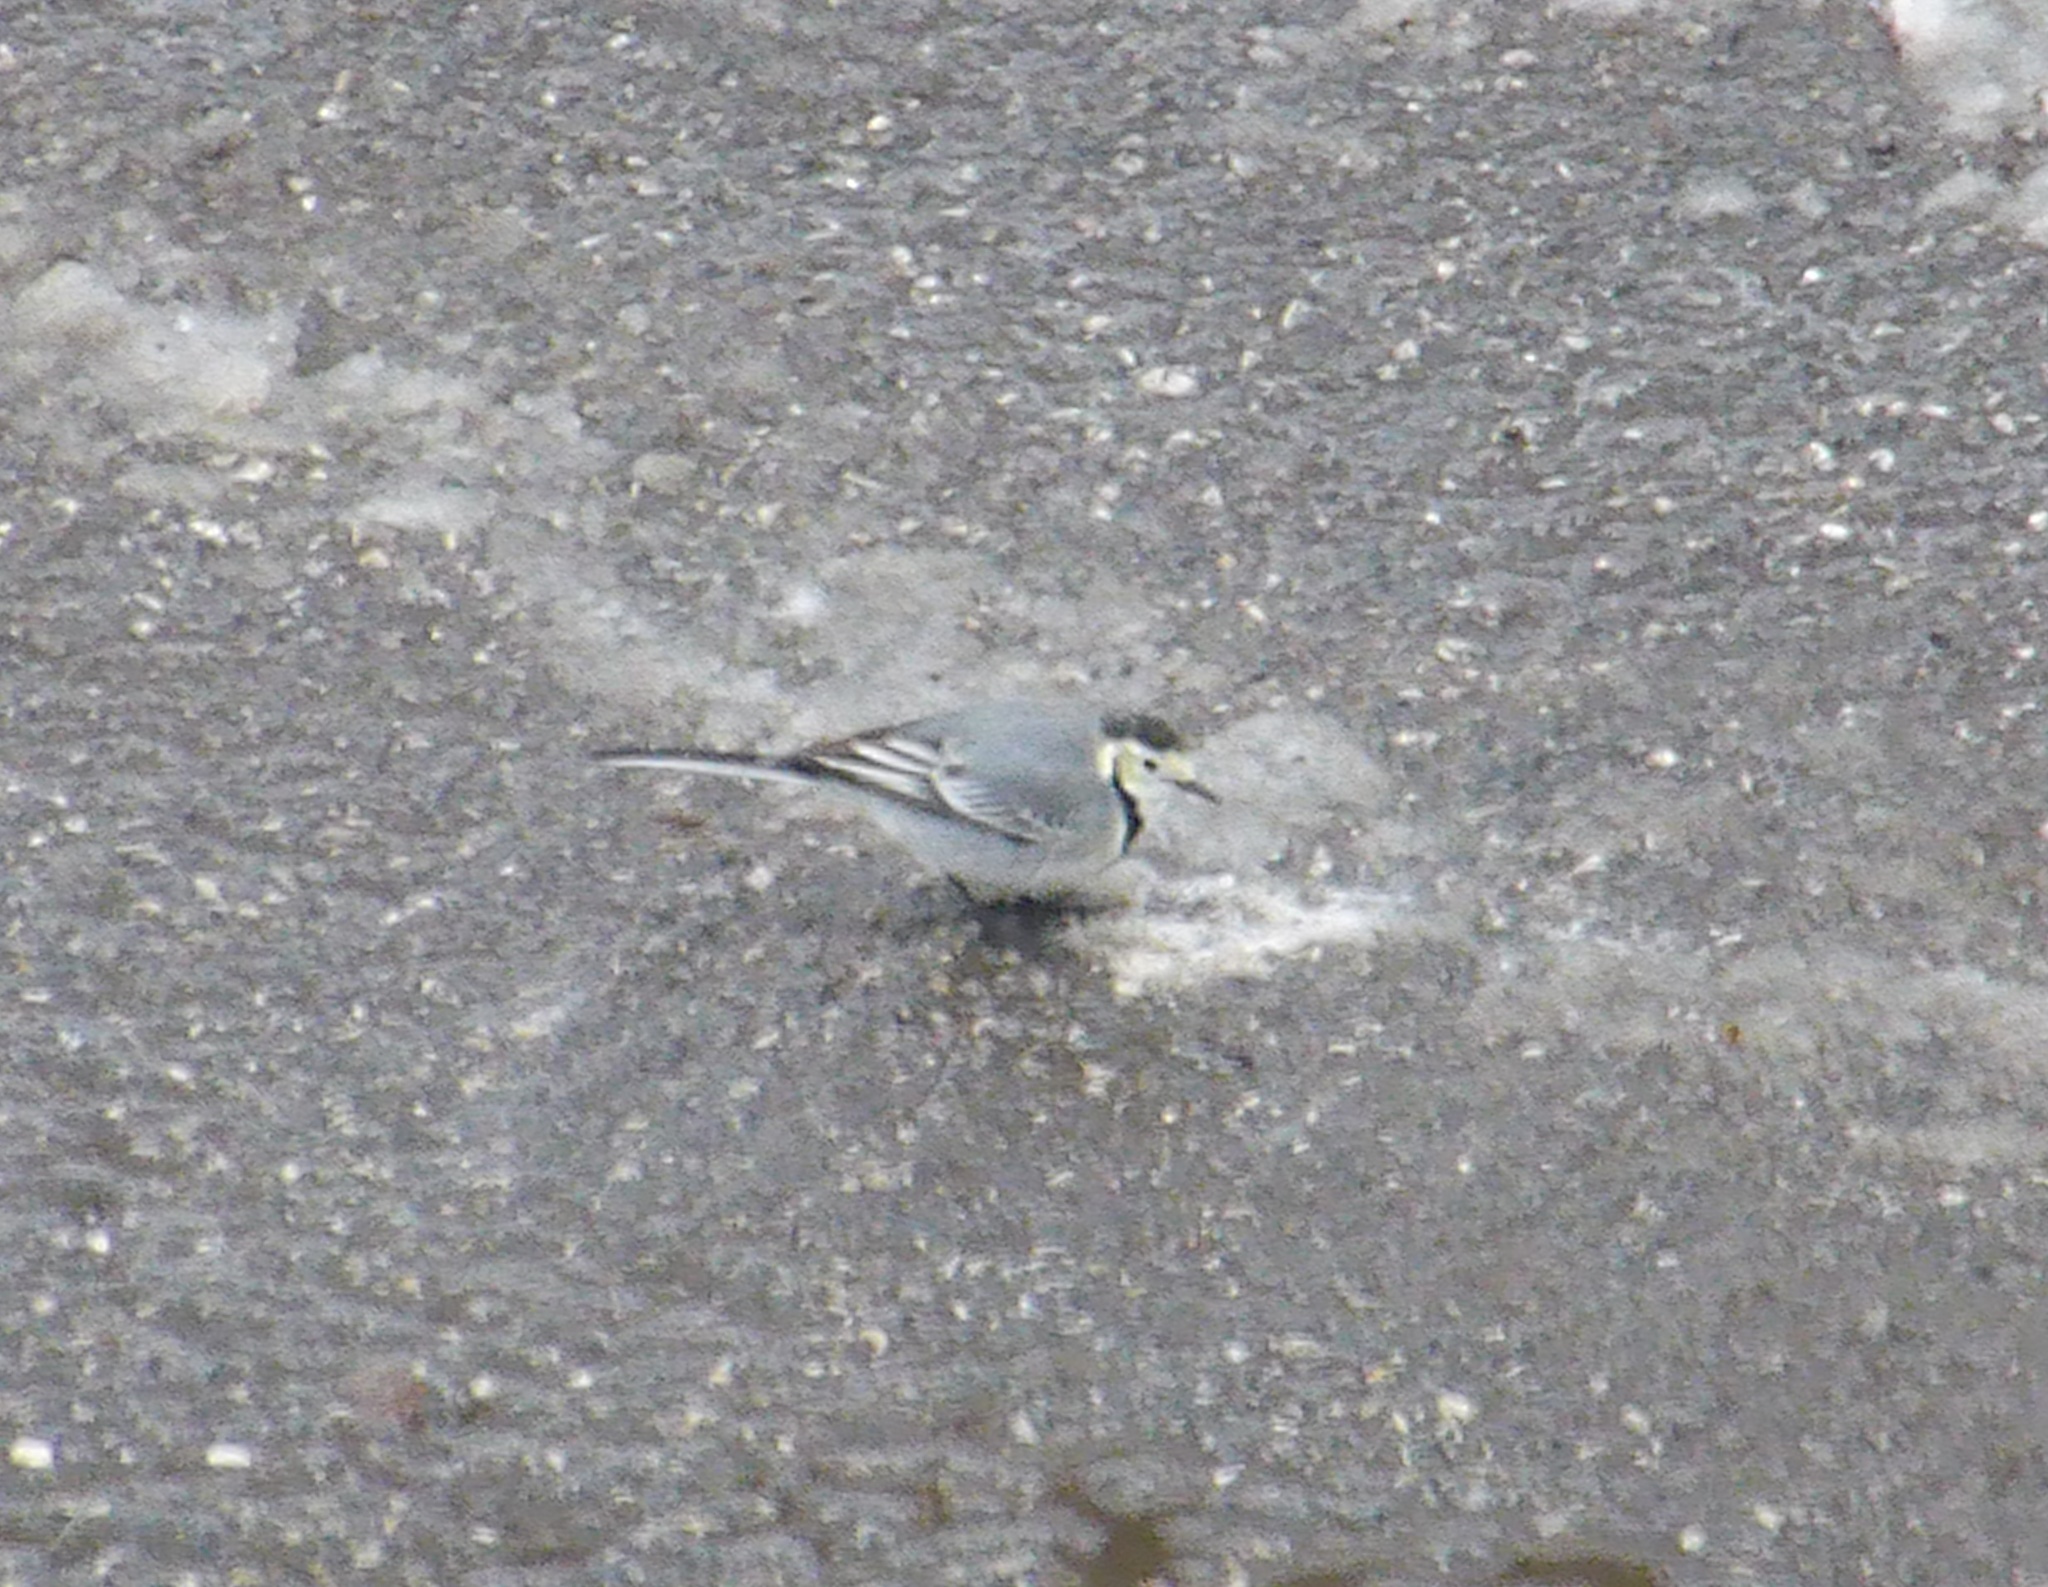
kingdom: Animalia
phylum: Chordata
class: Aves
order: Passeriformes
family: Motacillidae
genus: Motacilla
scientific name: Motacilla alba
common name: White wagtail
